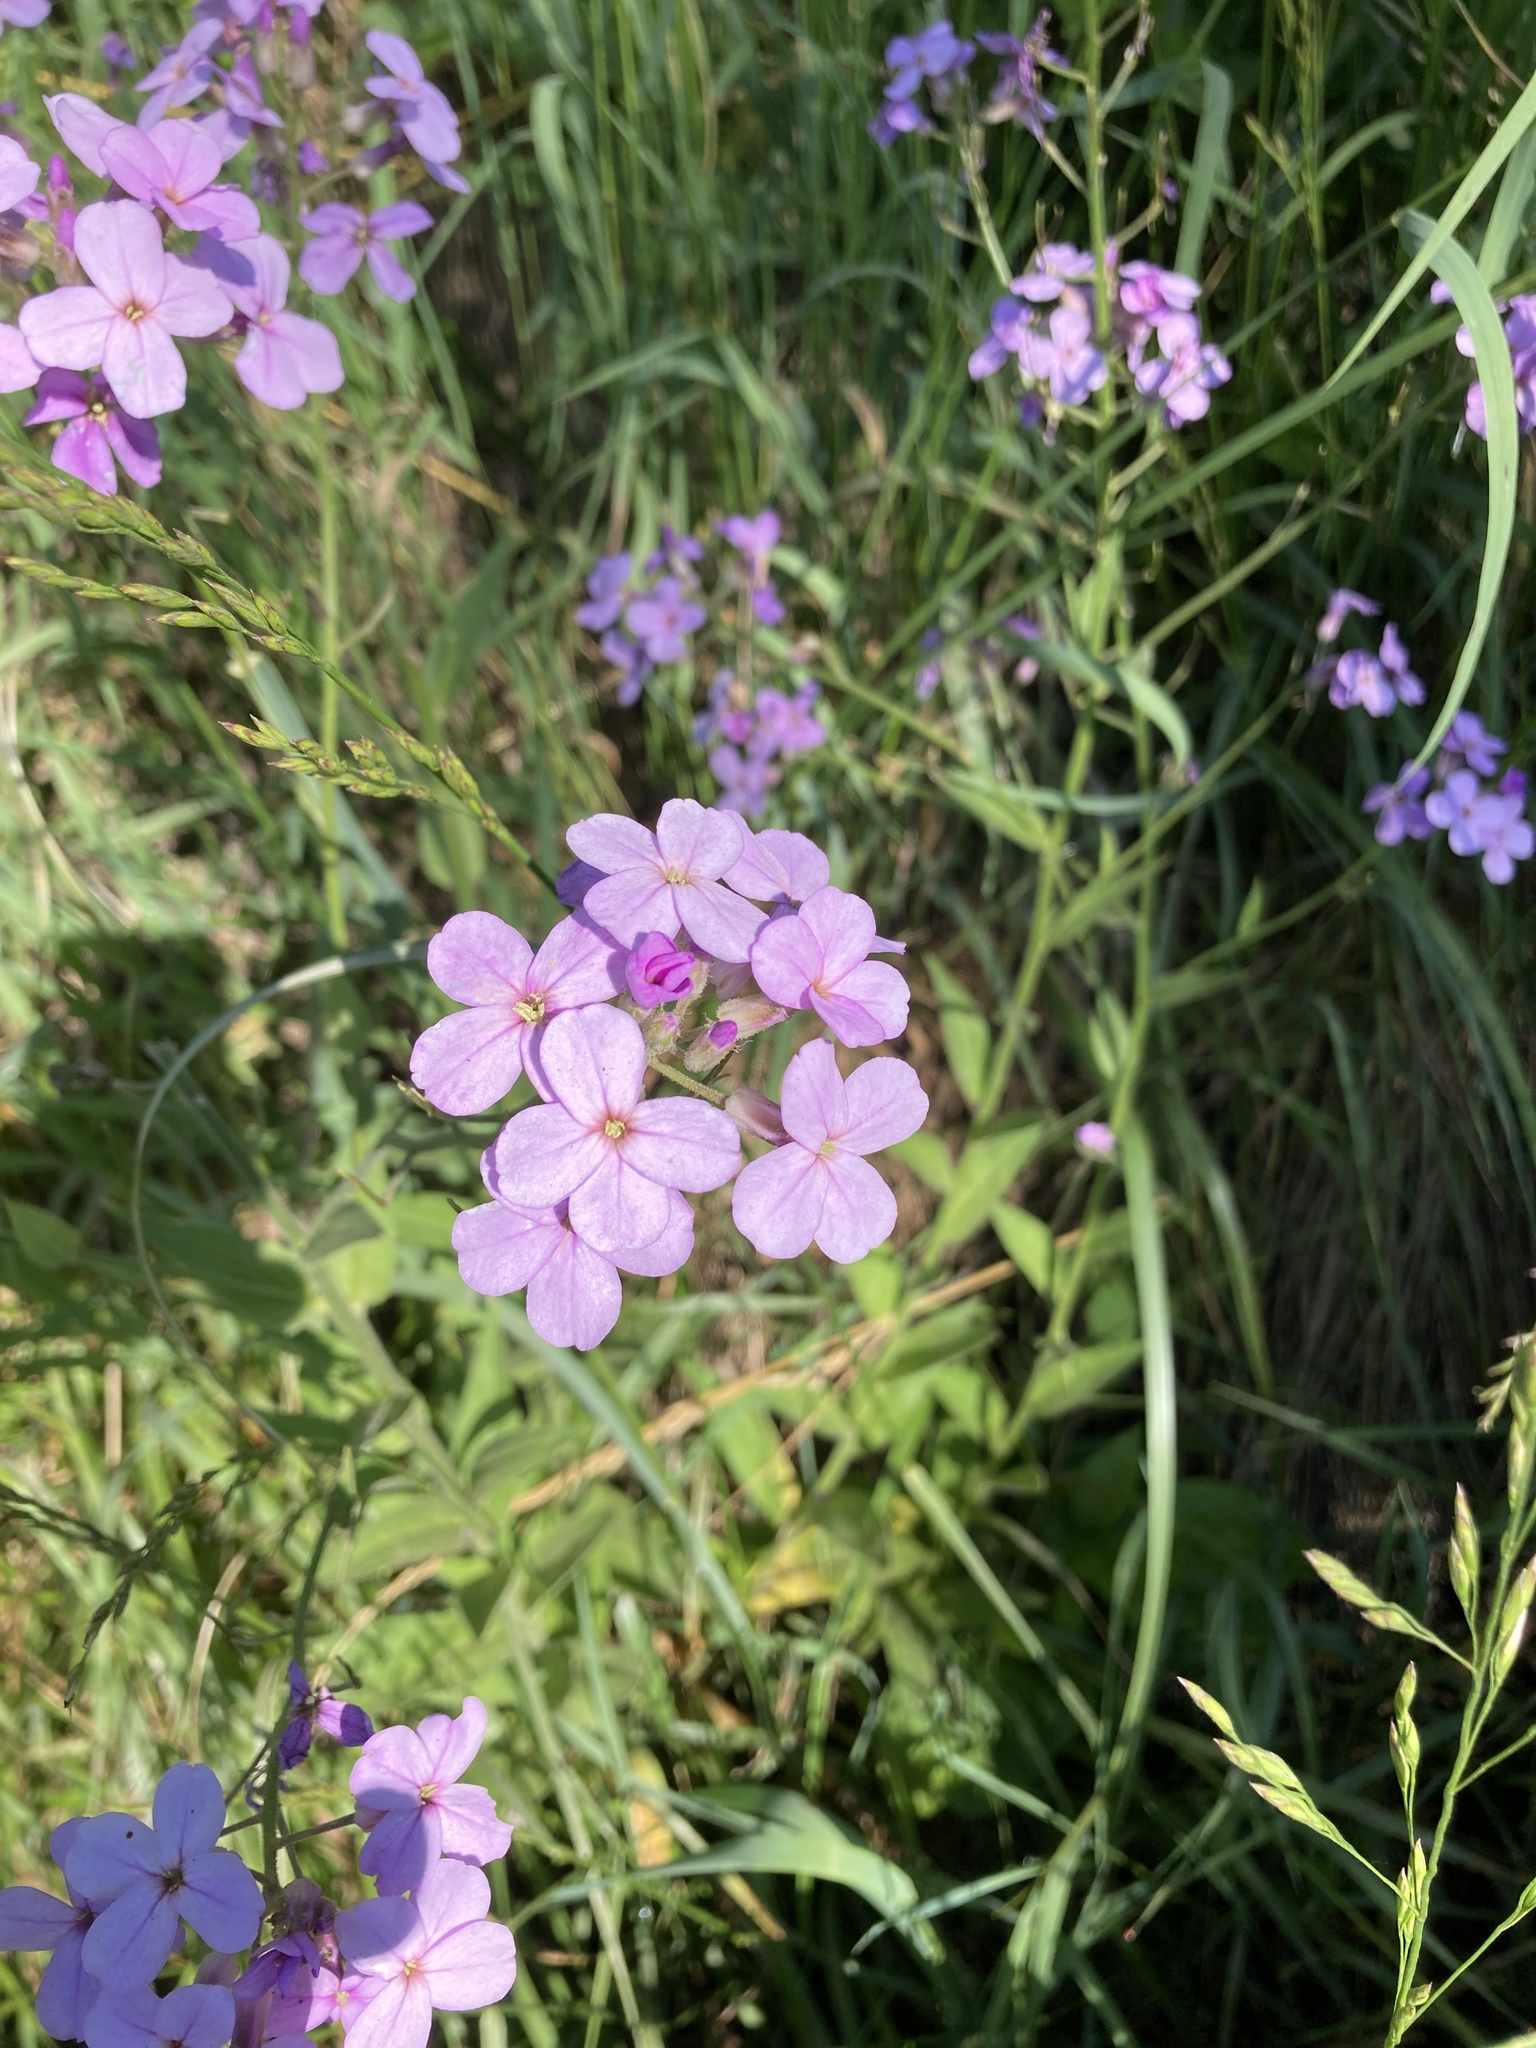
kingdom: Plantae
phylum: Tracheophyta
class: Magnoliopsida
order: Brassicales
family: Brassicaceae
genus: Hesperis
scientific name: Hesperis matronalis
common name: Dame's-violet
